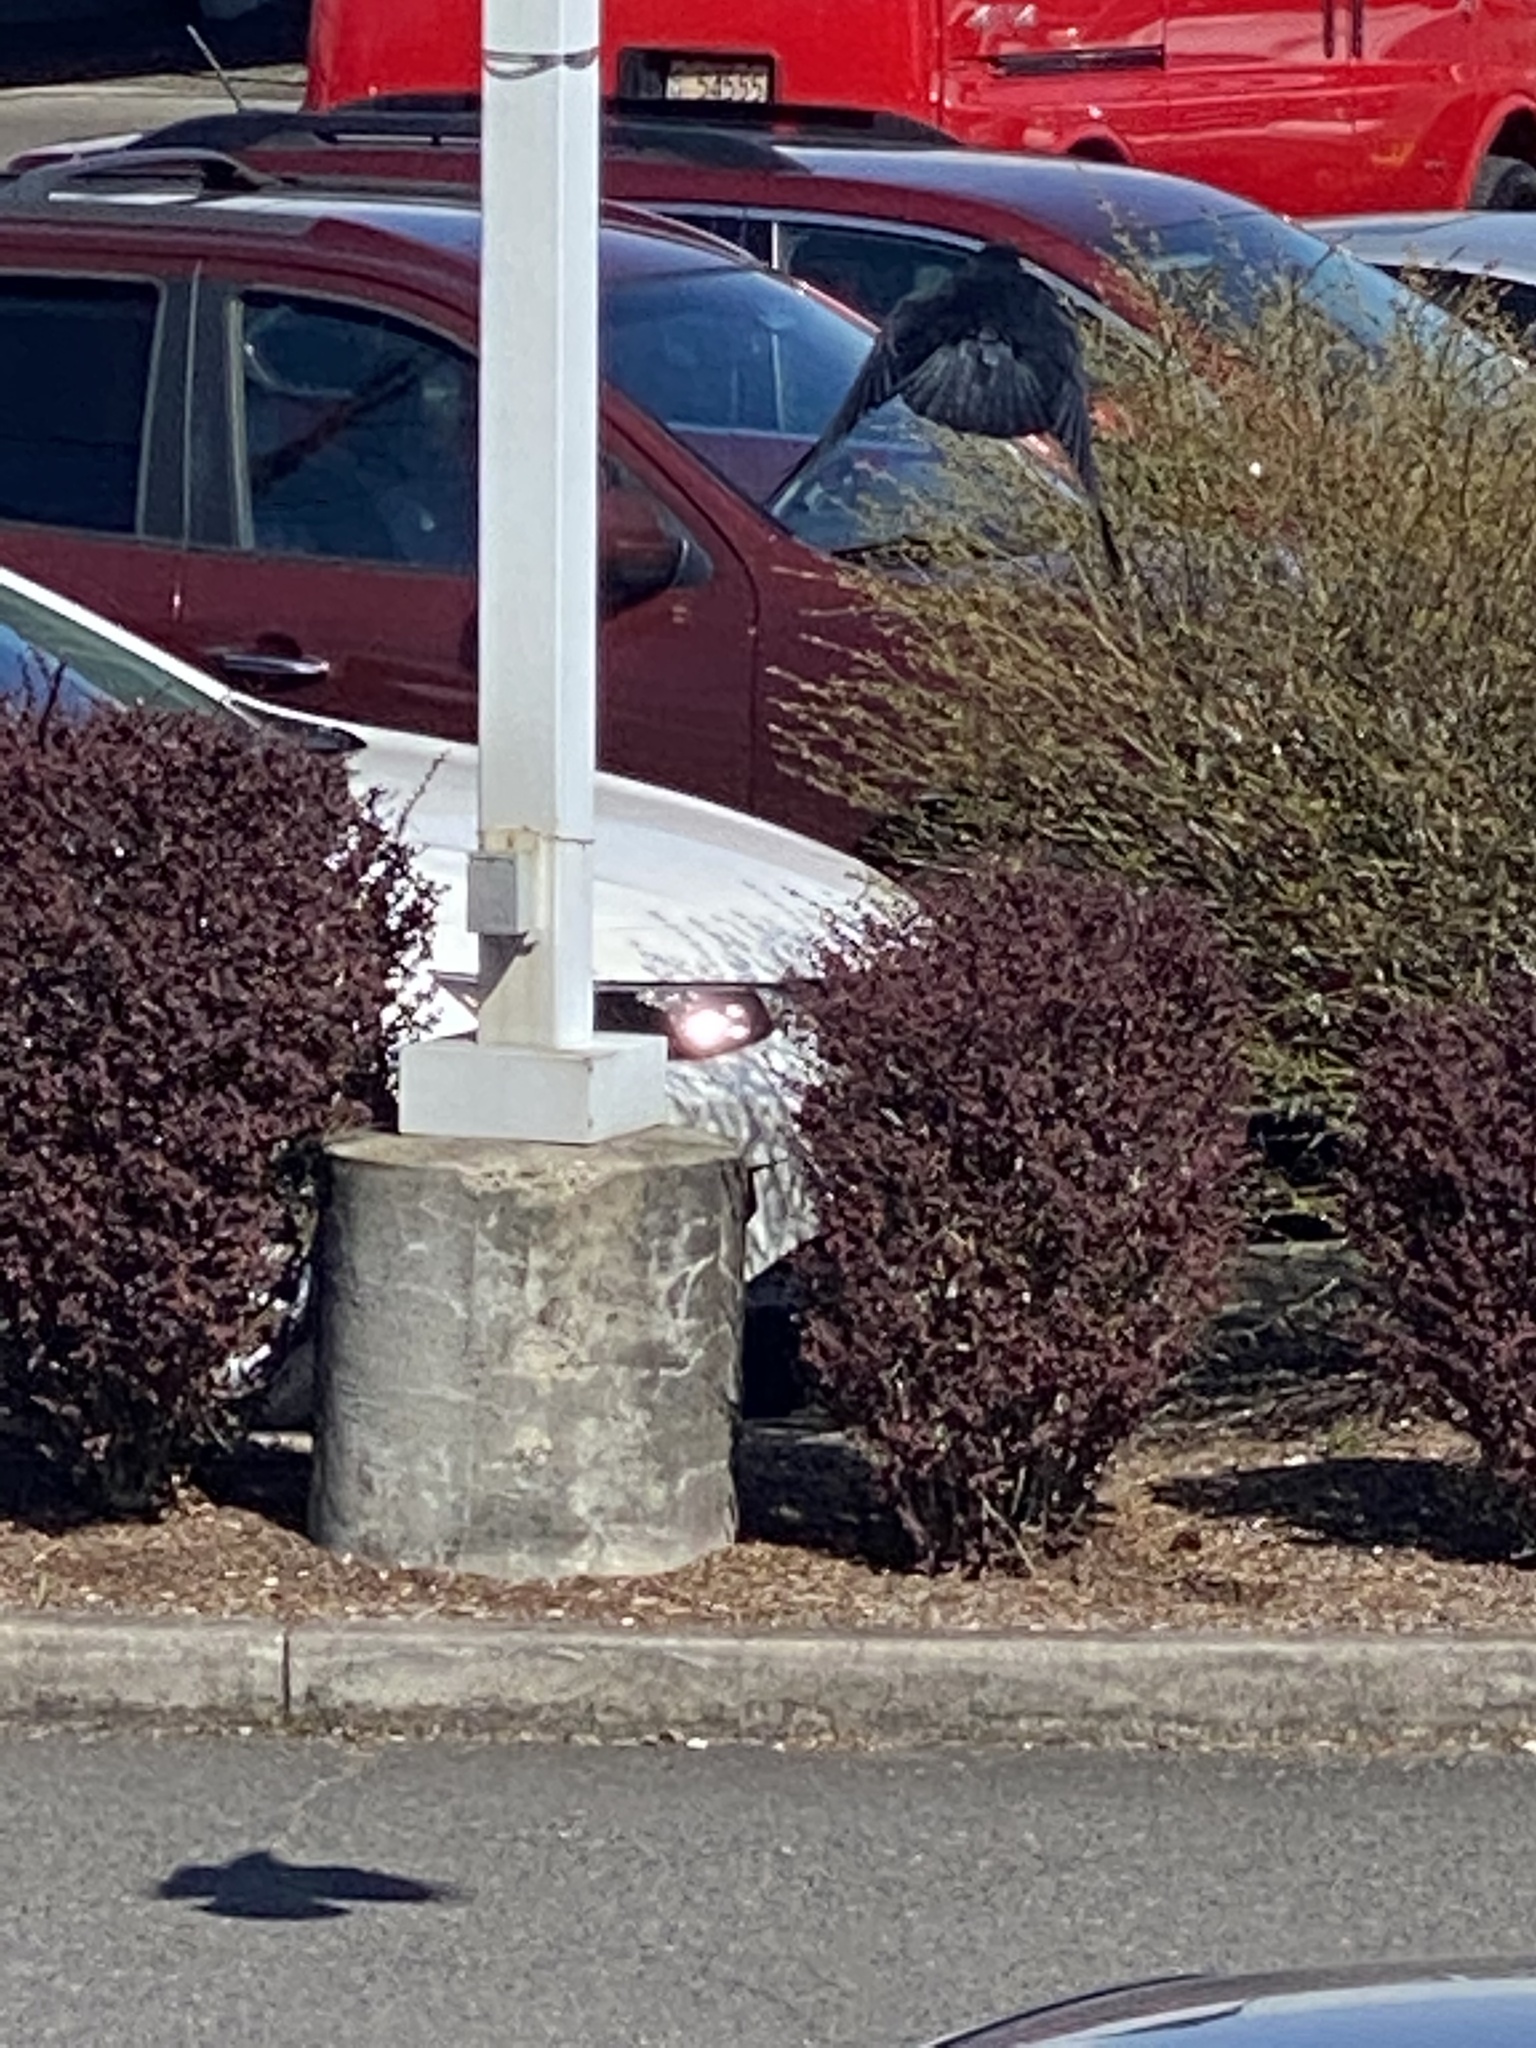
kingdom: Animalia
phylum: Chordata
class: Aves
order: Passeriformes
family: Corvidae
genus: Corvus
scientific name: Corvus brachyrhynchos
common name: American crow
